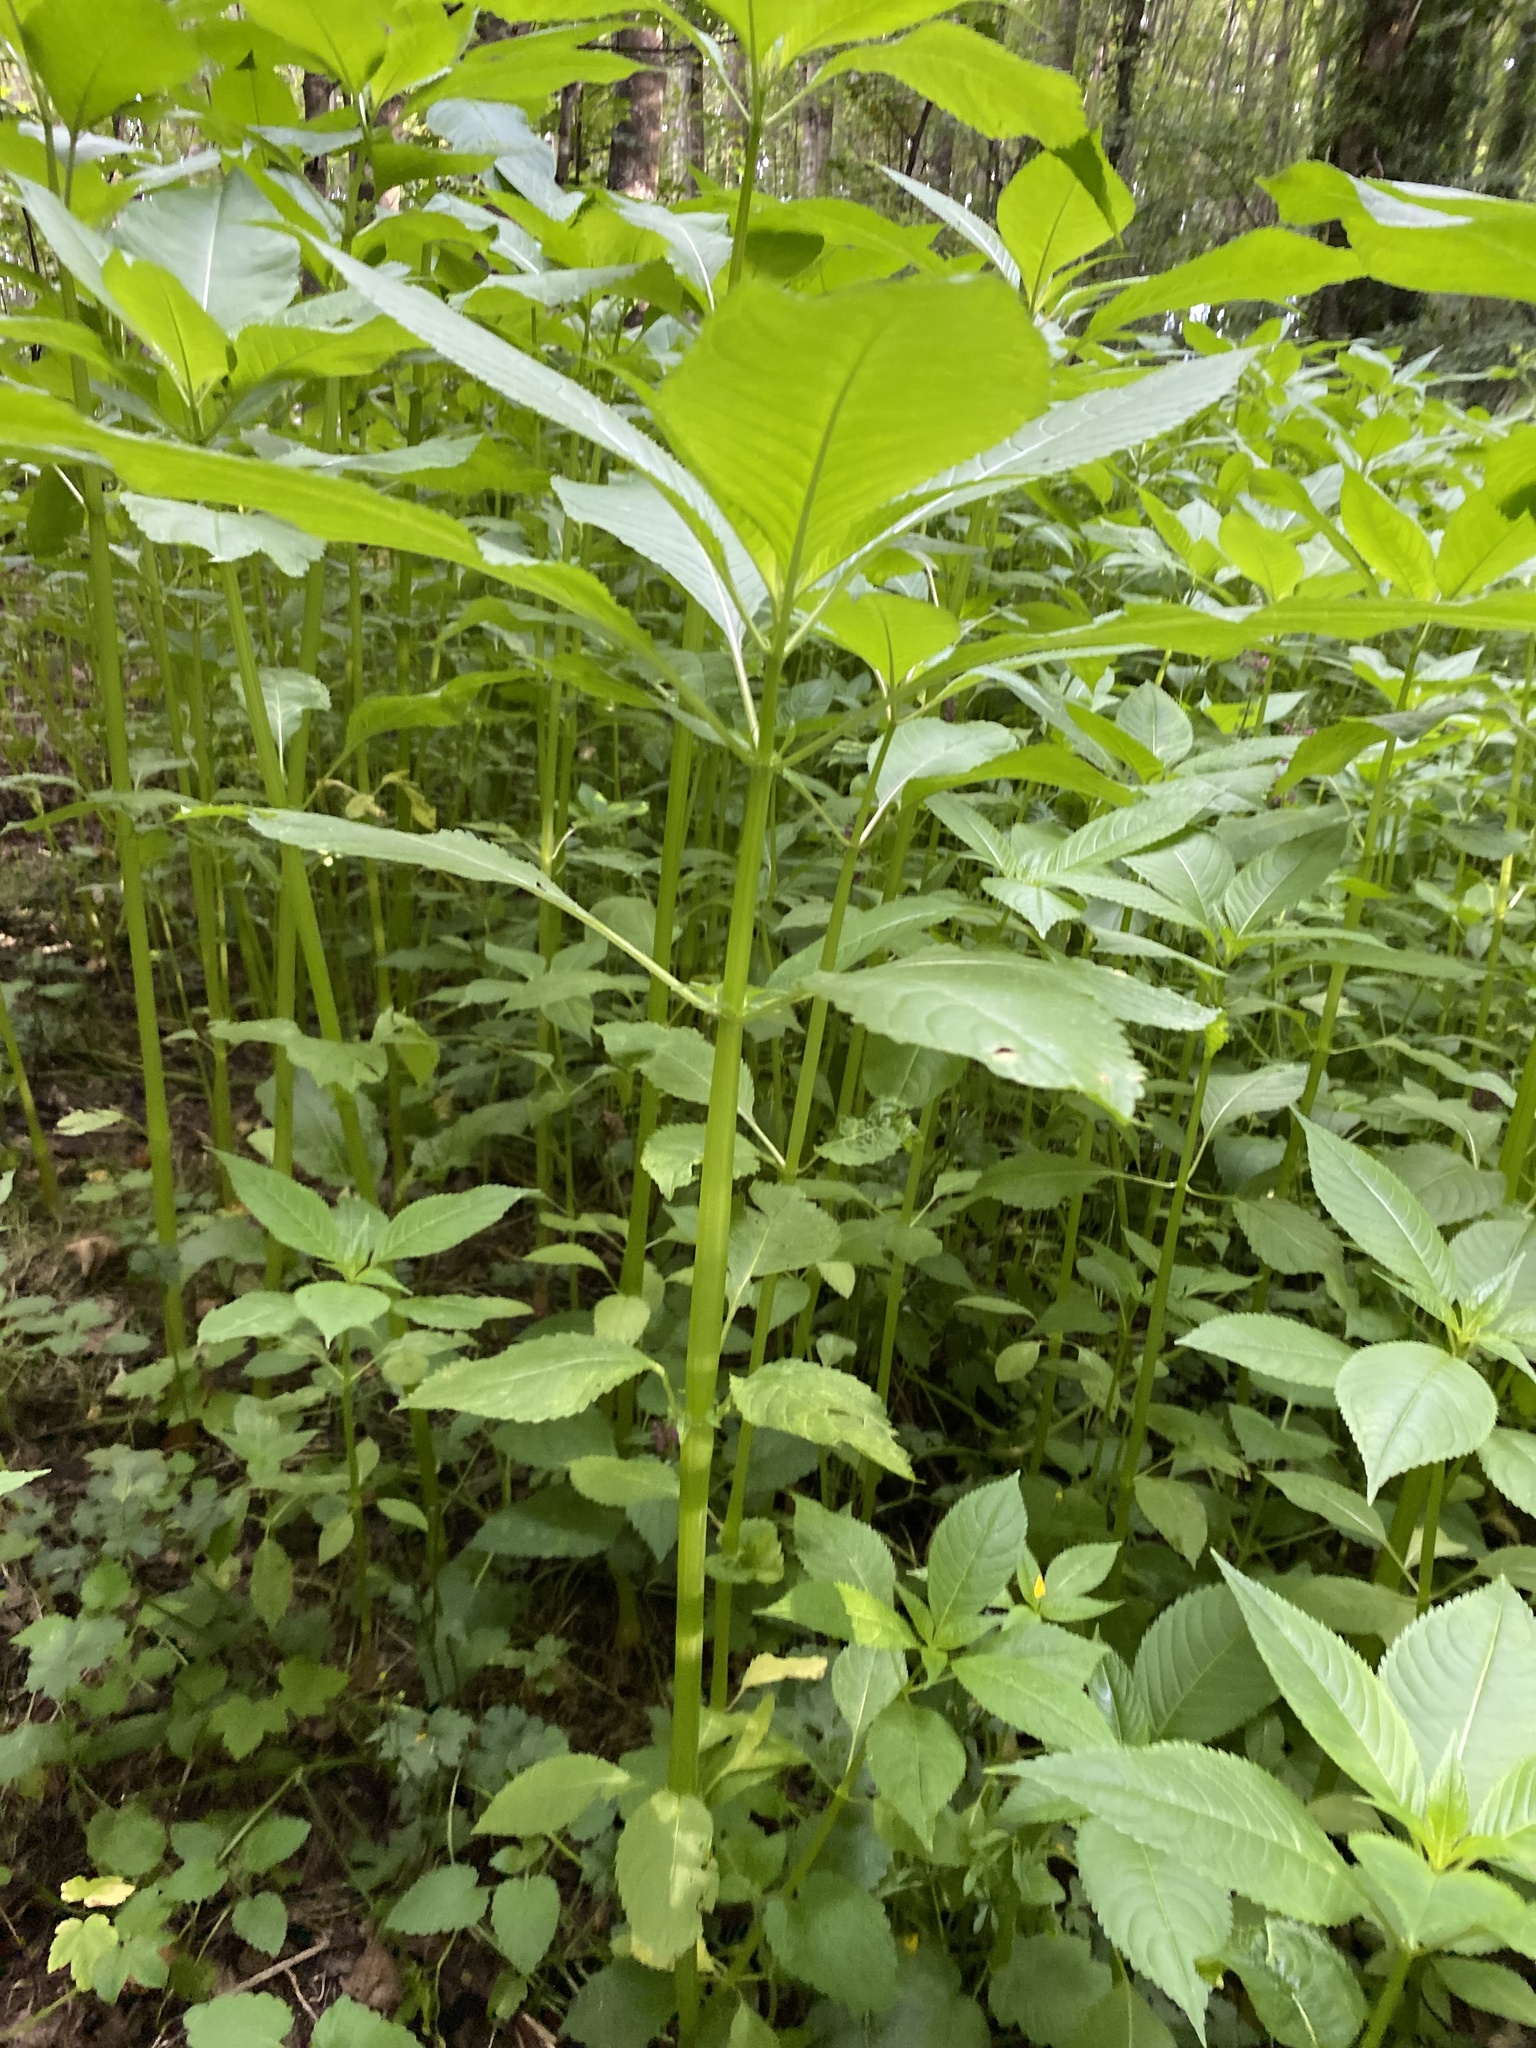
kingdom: Plantae
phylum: Tracheophyta
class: Magnoliopsida
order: Ericales
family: Balsaminaceae
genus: Impatiens
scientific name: Impatiens glandulifera
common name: Himalayan balsam
